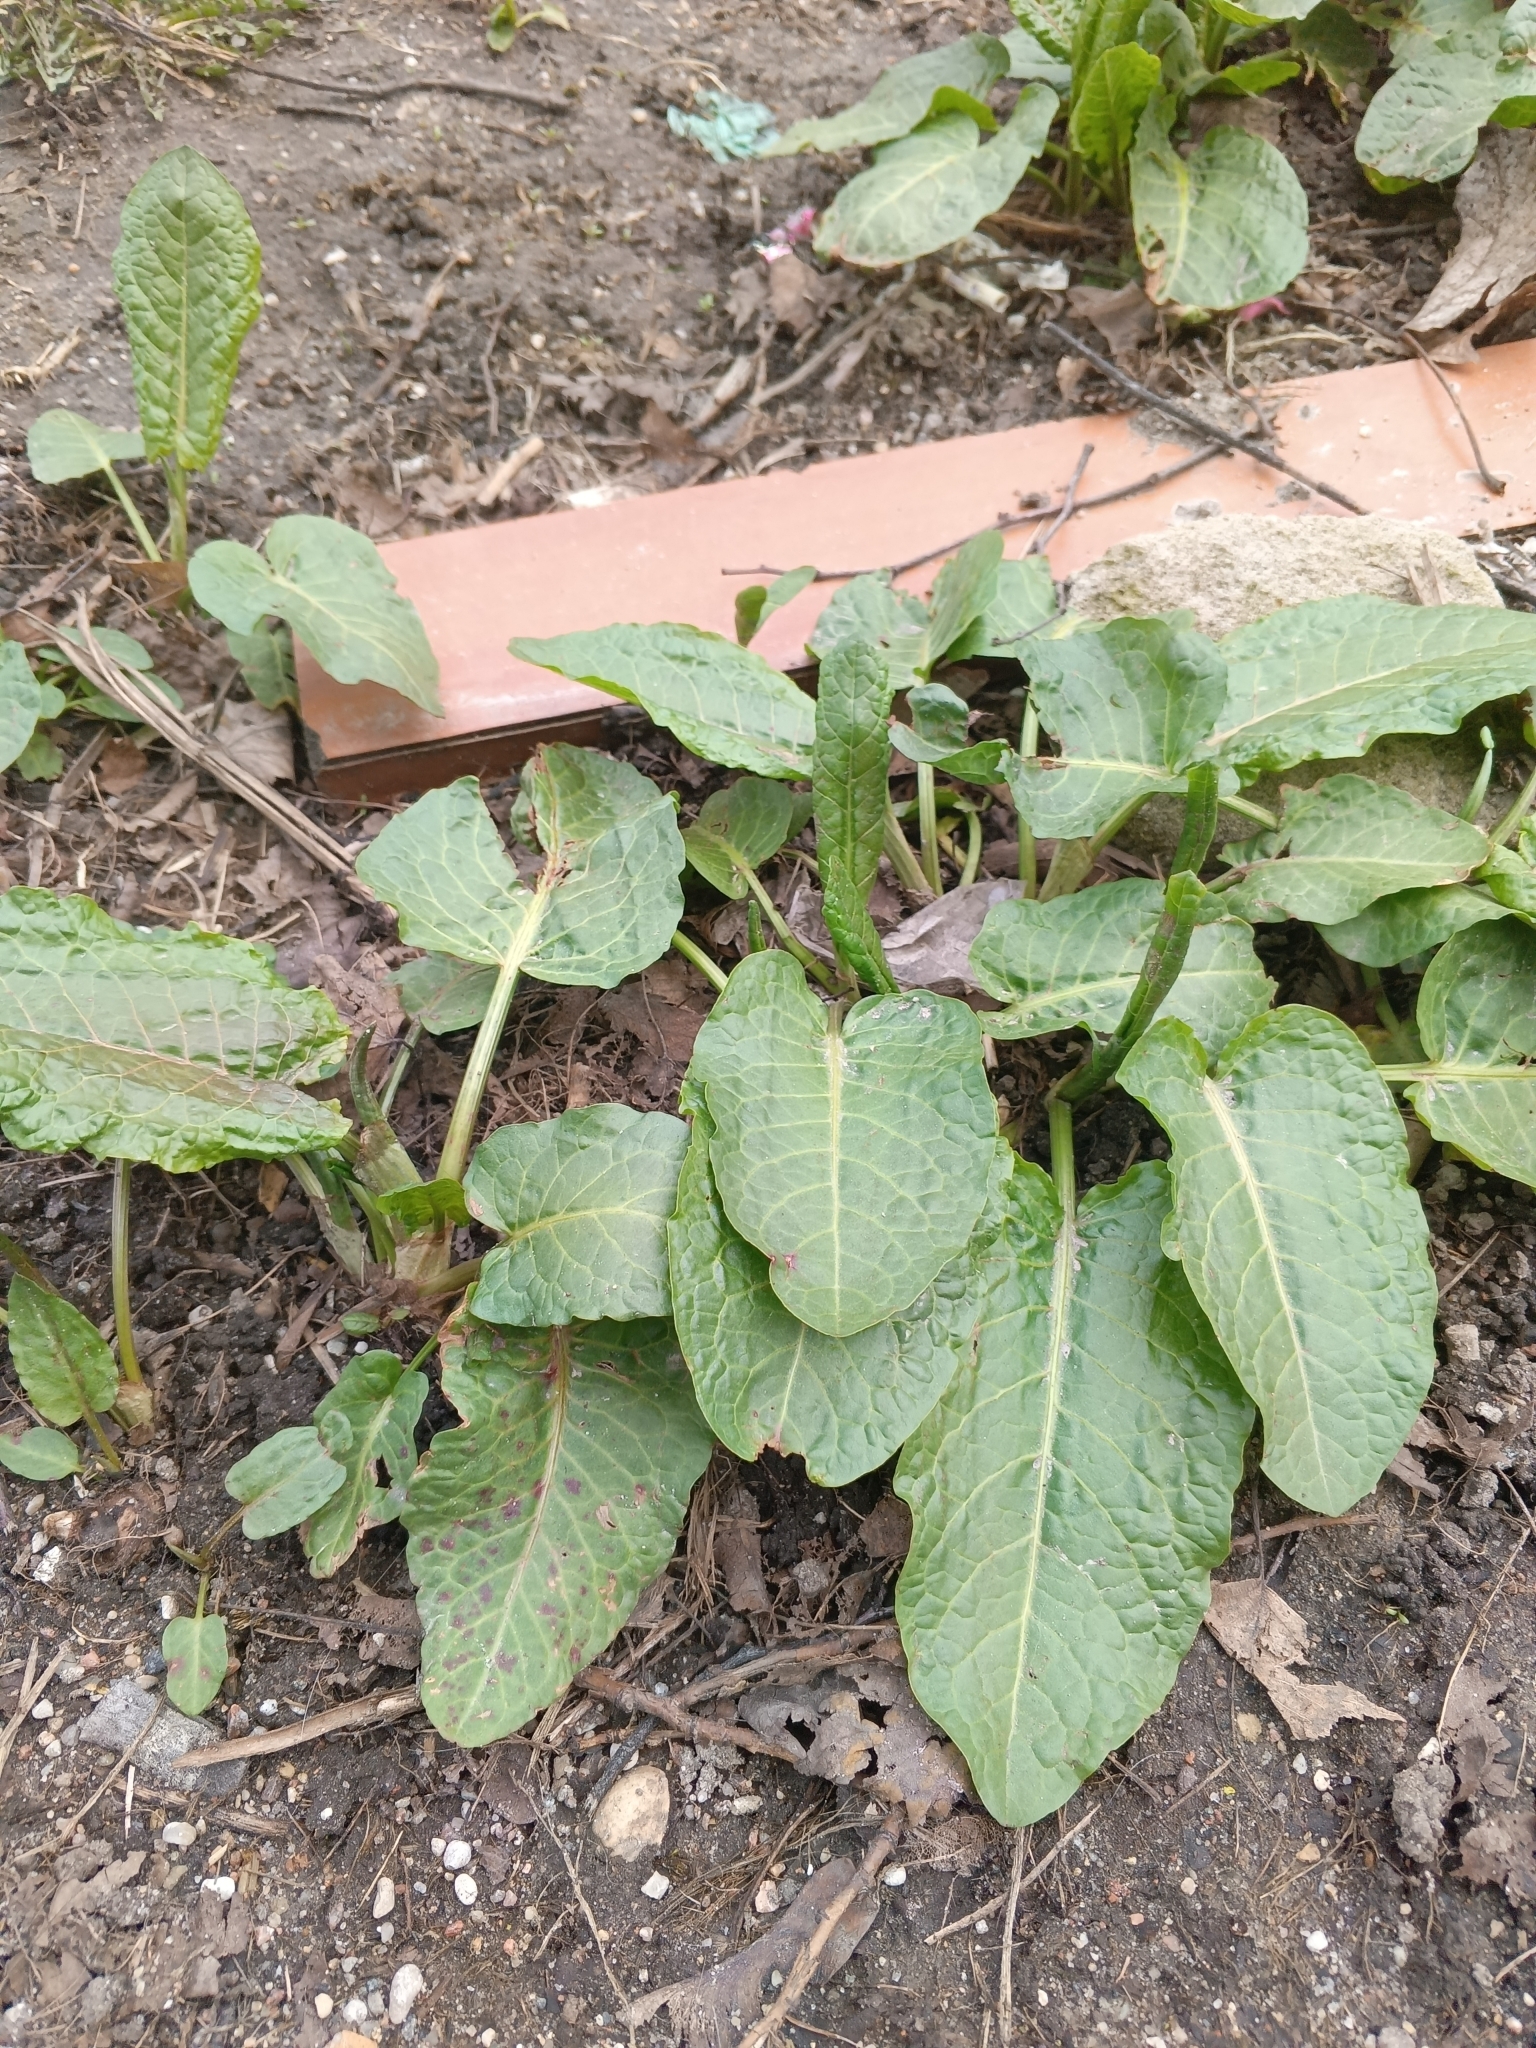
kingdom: Plantae
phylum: Tracheophyta
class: Magnoliopsida
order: Caryophyllales
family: Polygonaceae
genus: Rumex
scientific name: Rumex obtusifolius
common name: Bitter dock
